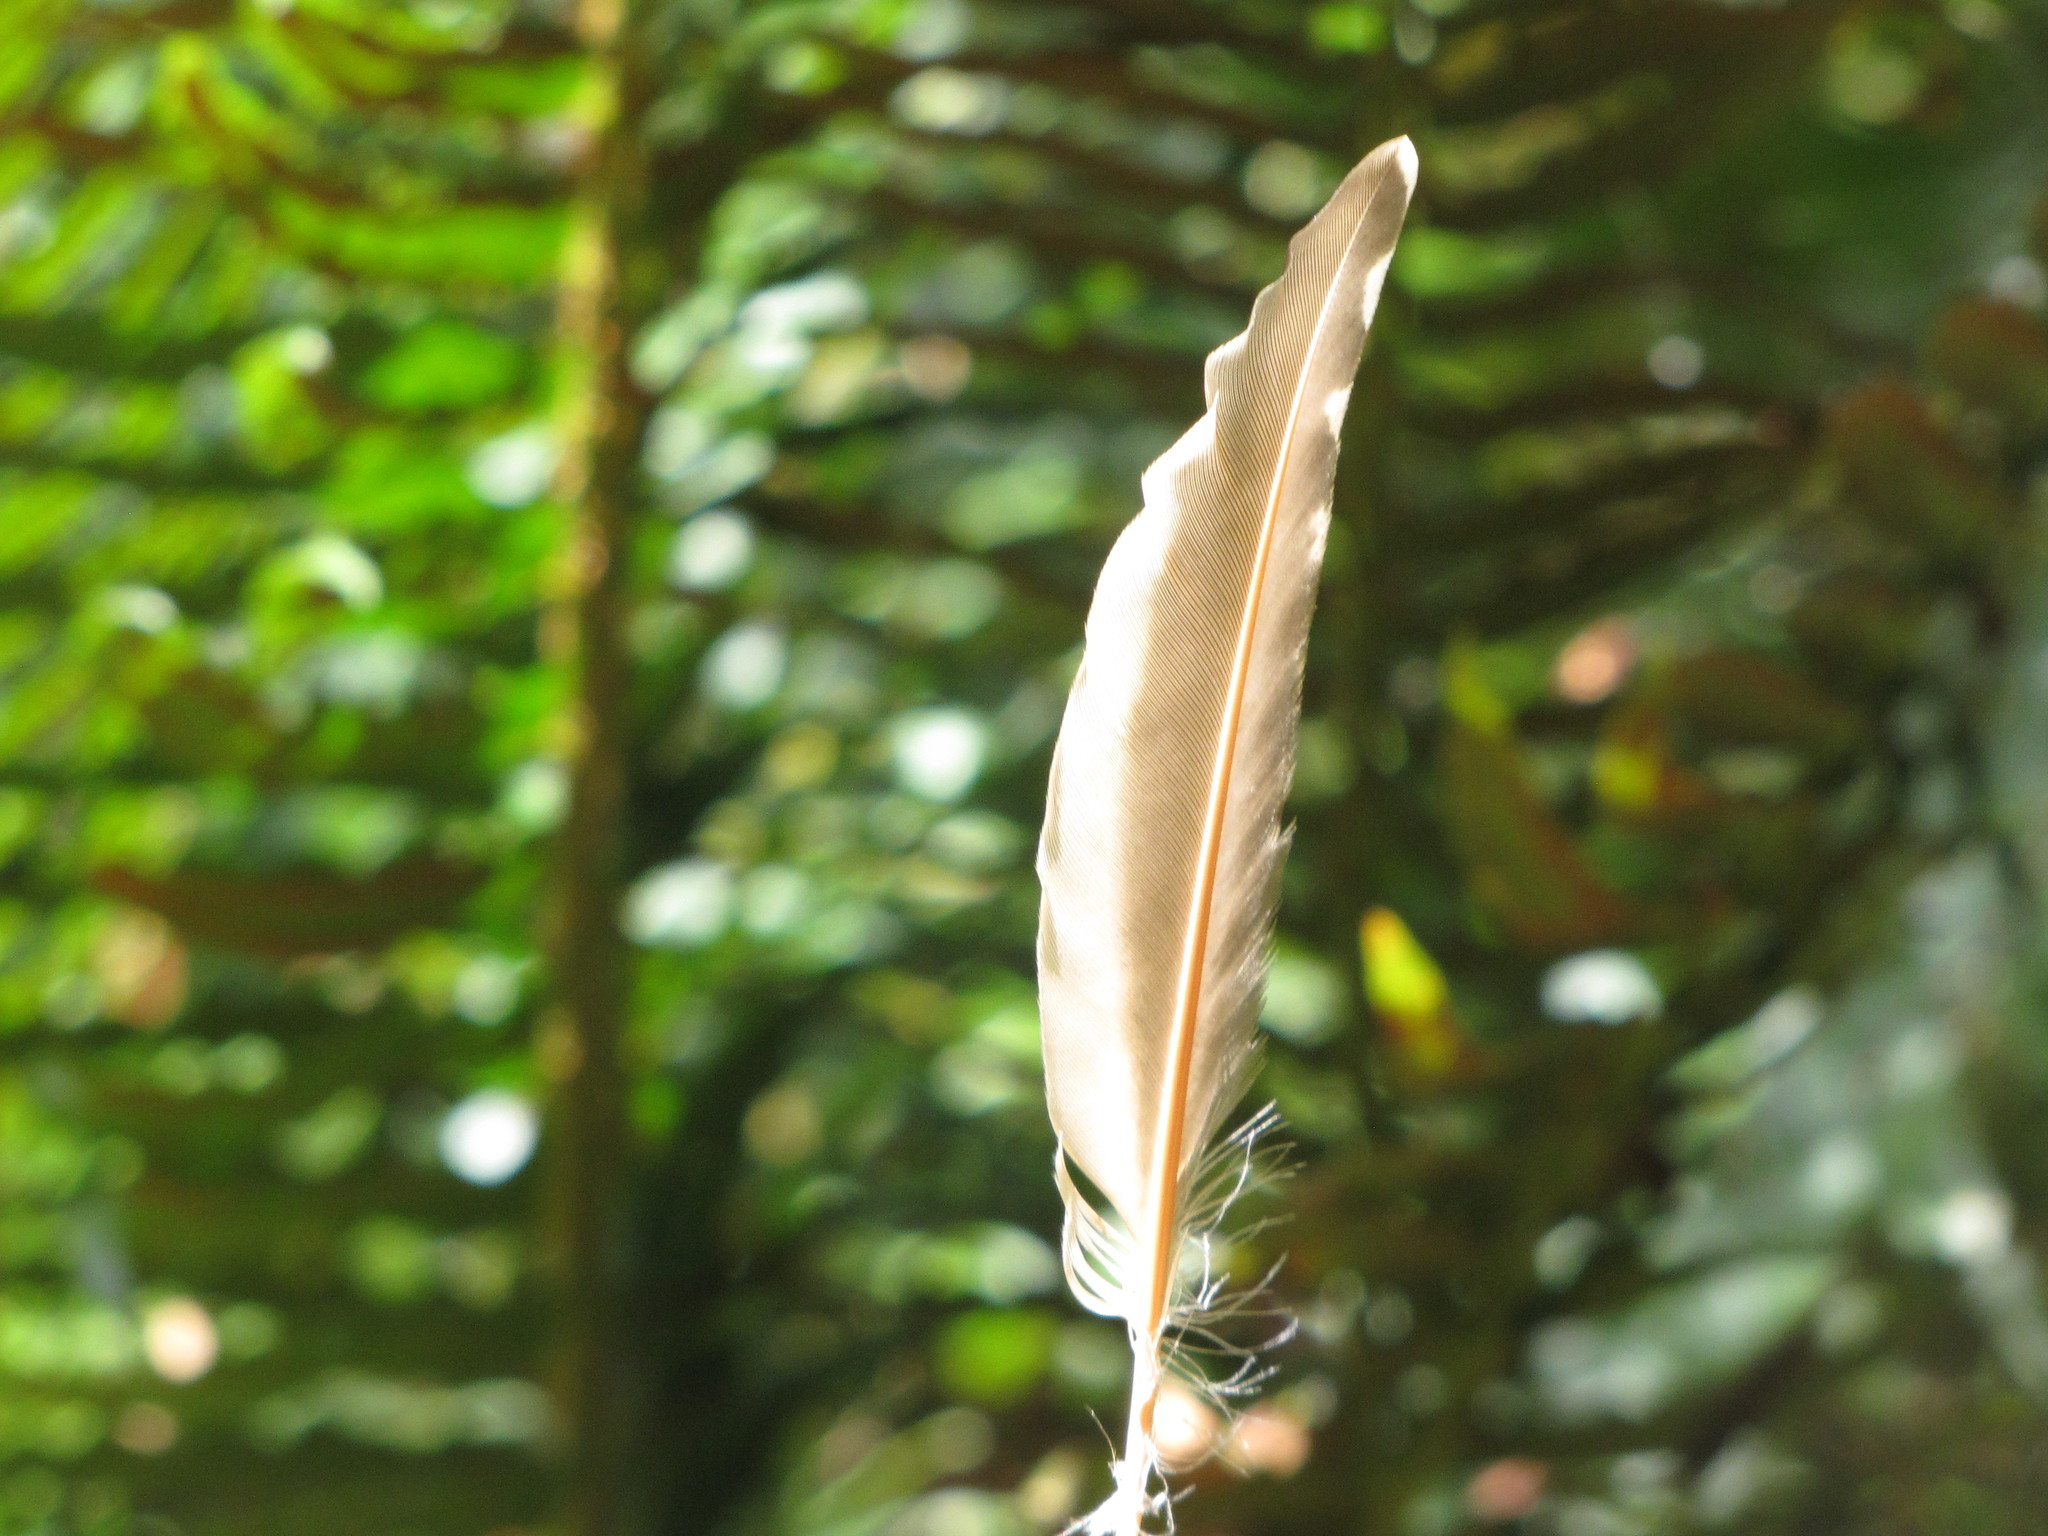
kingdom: Animalia
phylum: Chordata
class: Aves
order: Piciformes
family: Picidae
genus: Colaptes
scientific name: Colaptes auratus
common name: Northern flicker
